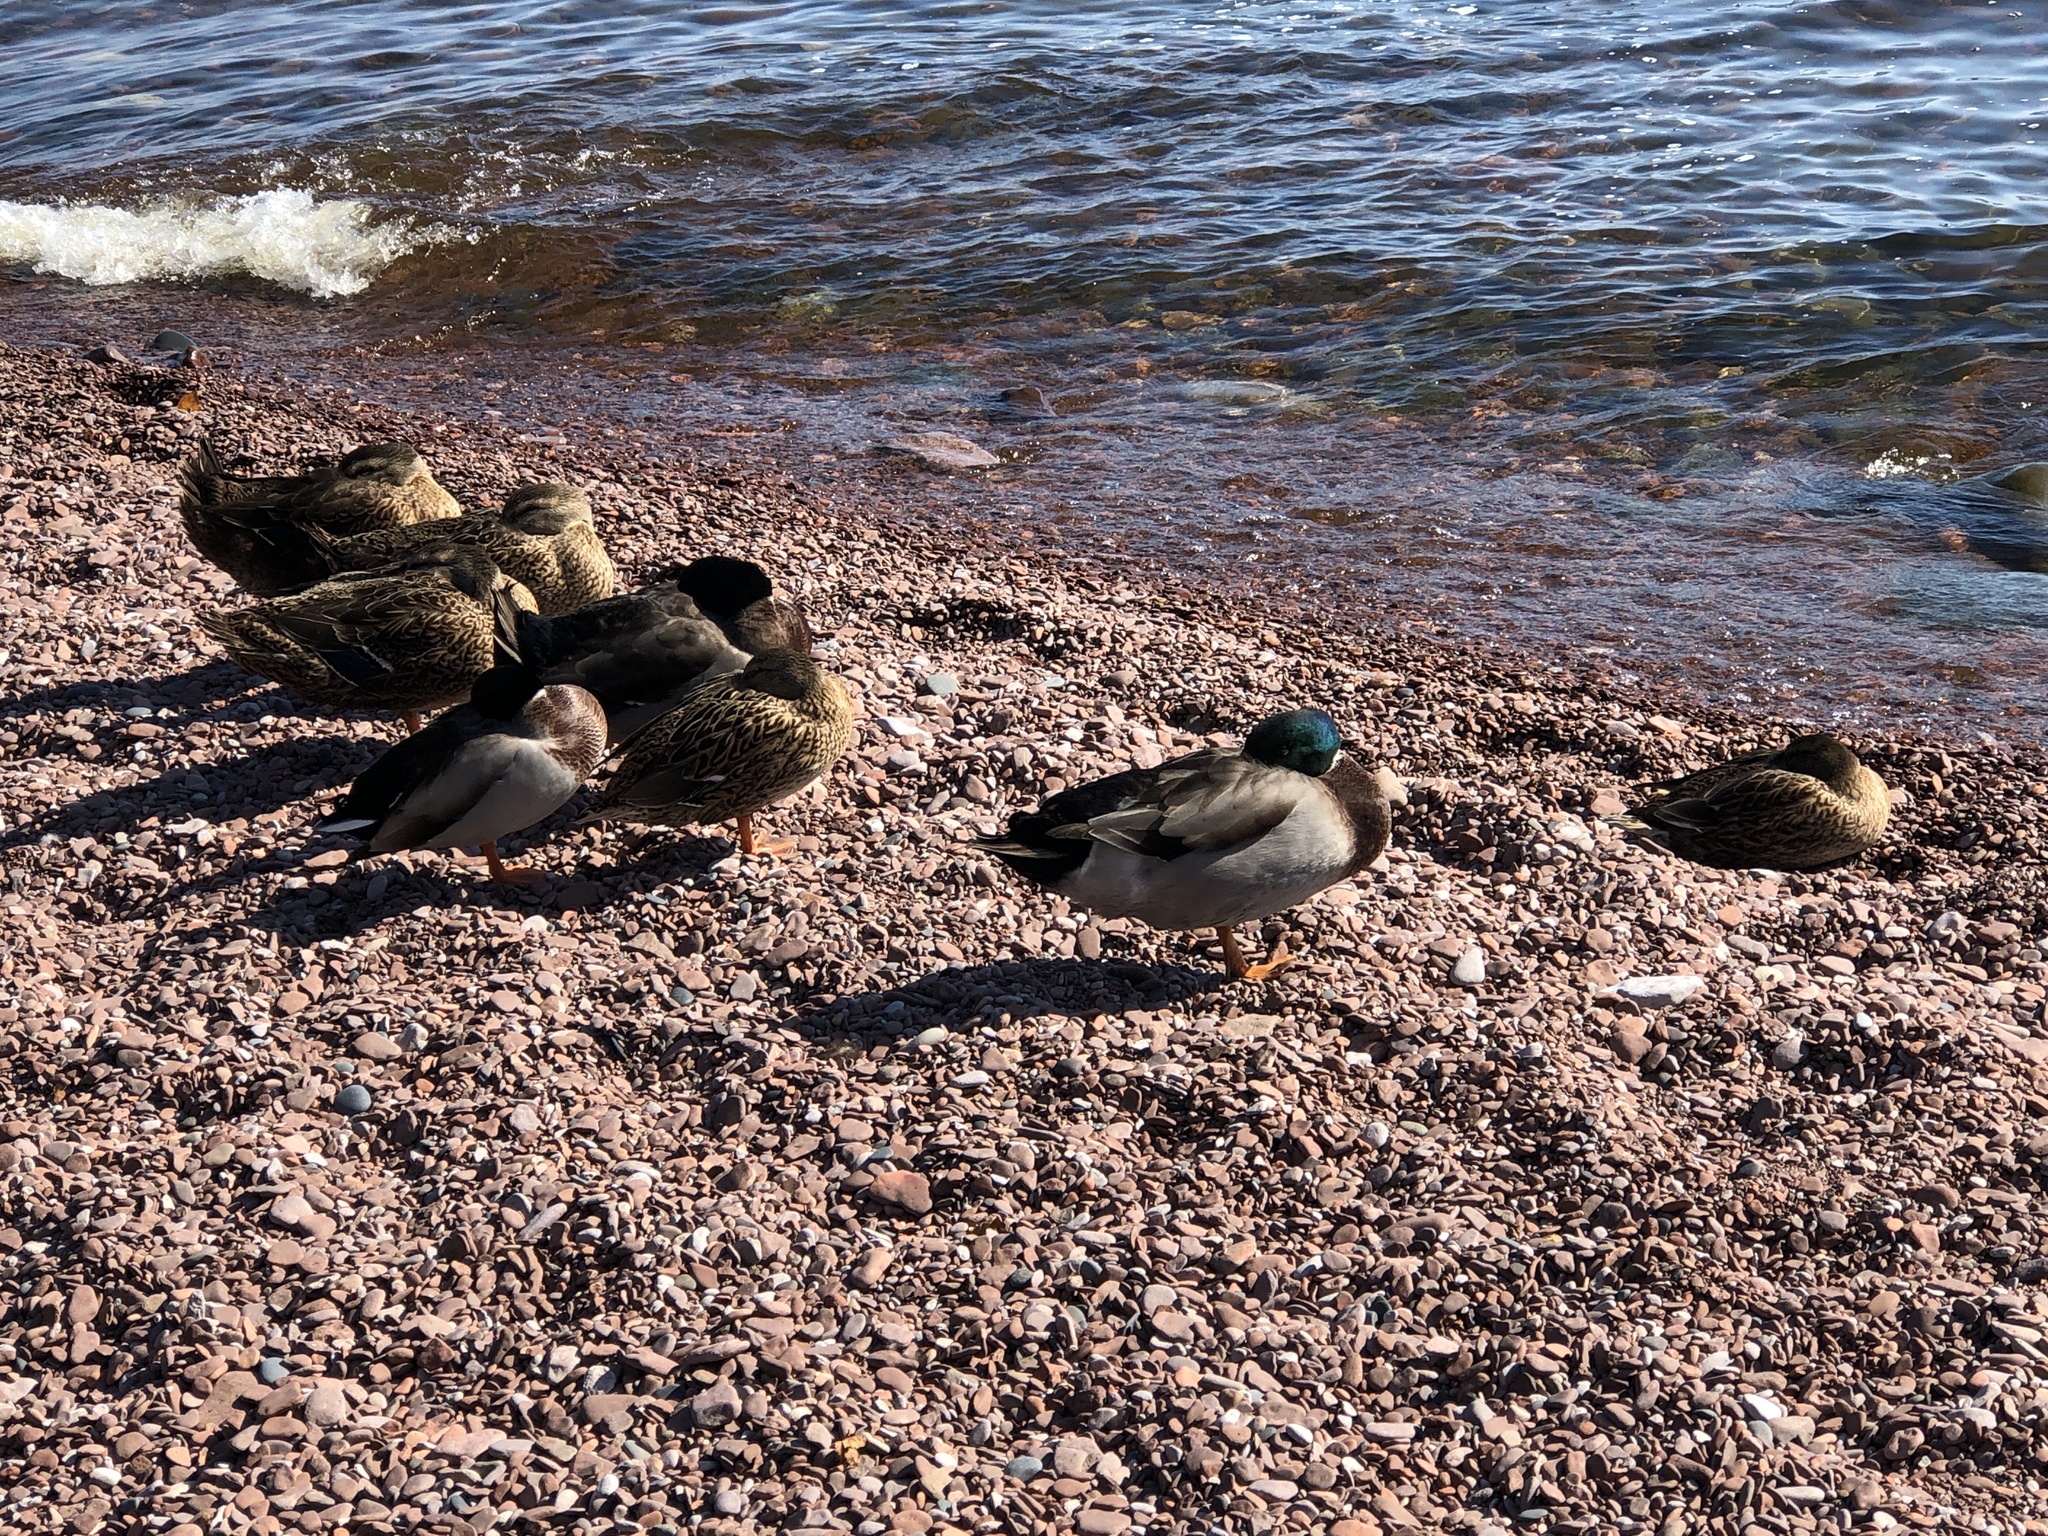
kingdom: Animalia
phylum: Chordata
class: Aves
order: Anseriformes
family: Anatidae
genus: Anas
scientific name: Anas platyrhynchos
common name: Mallard
